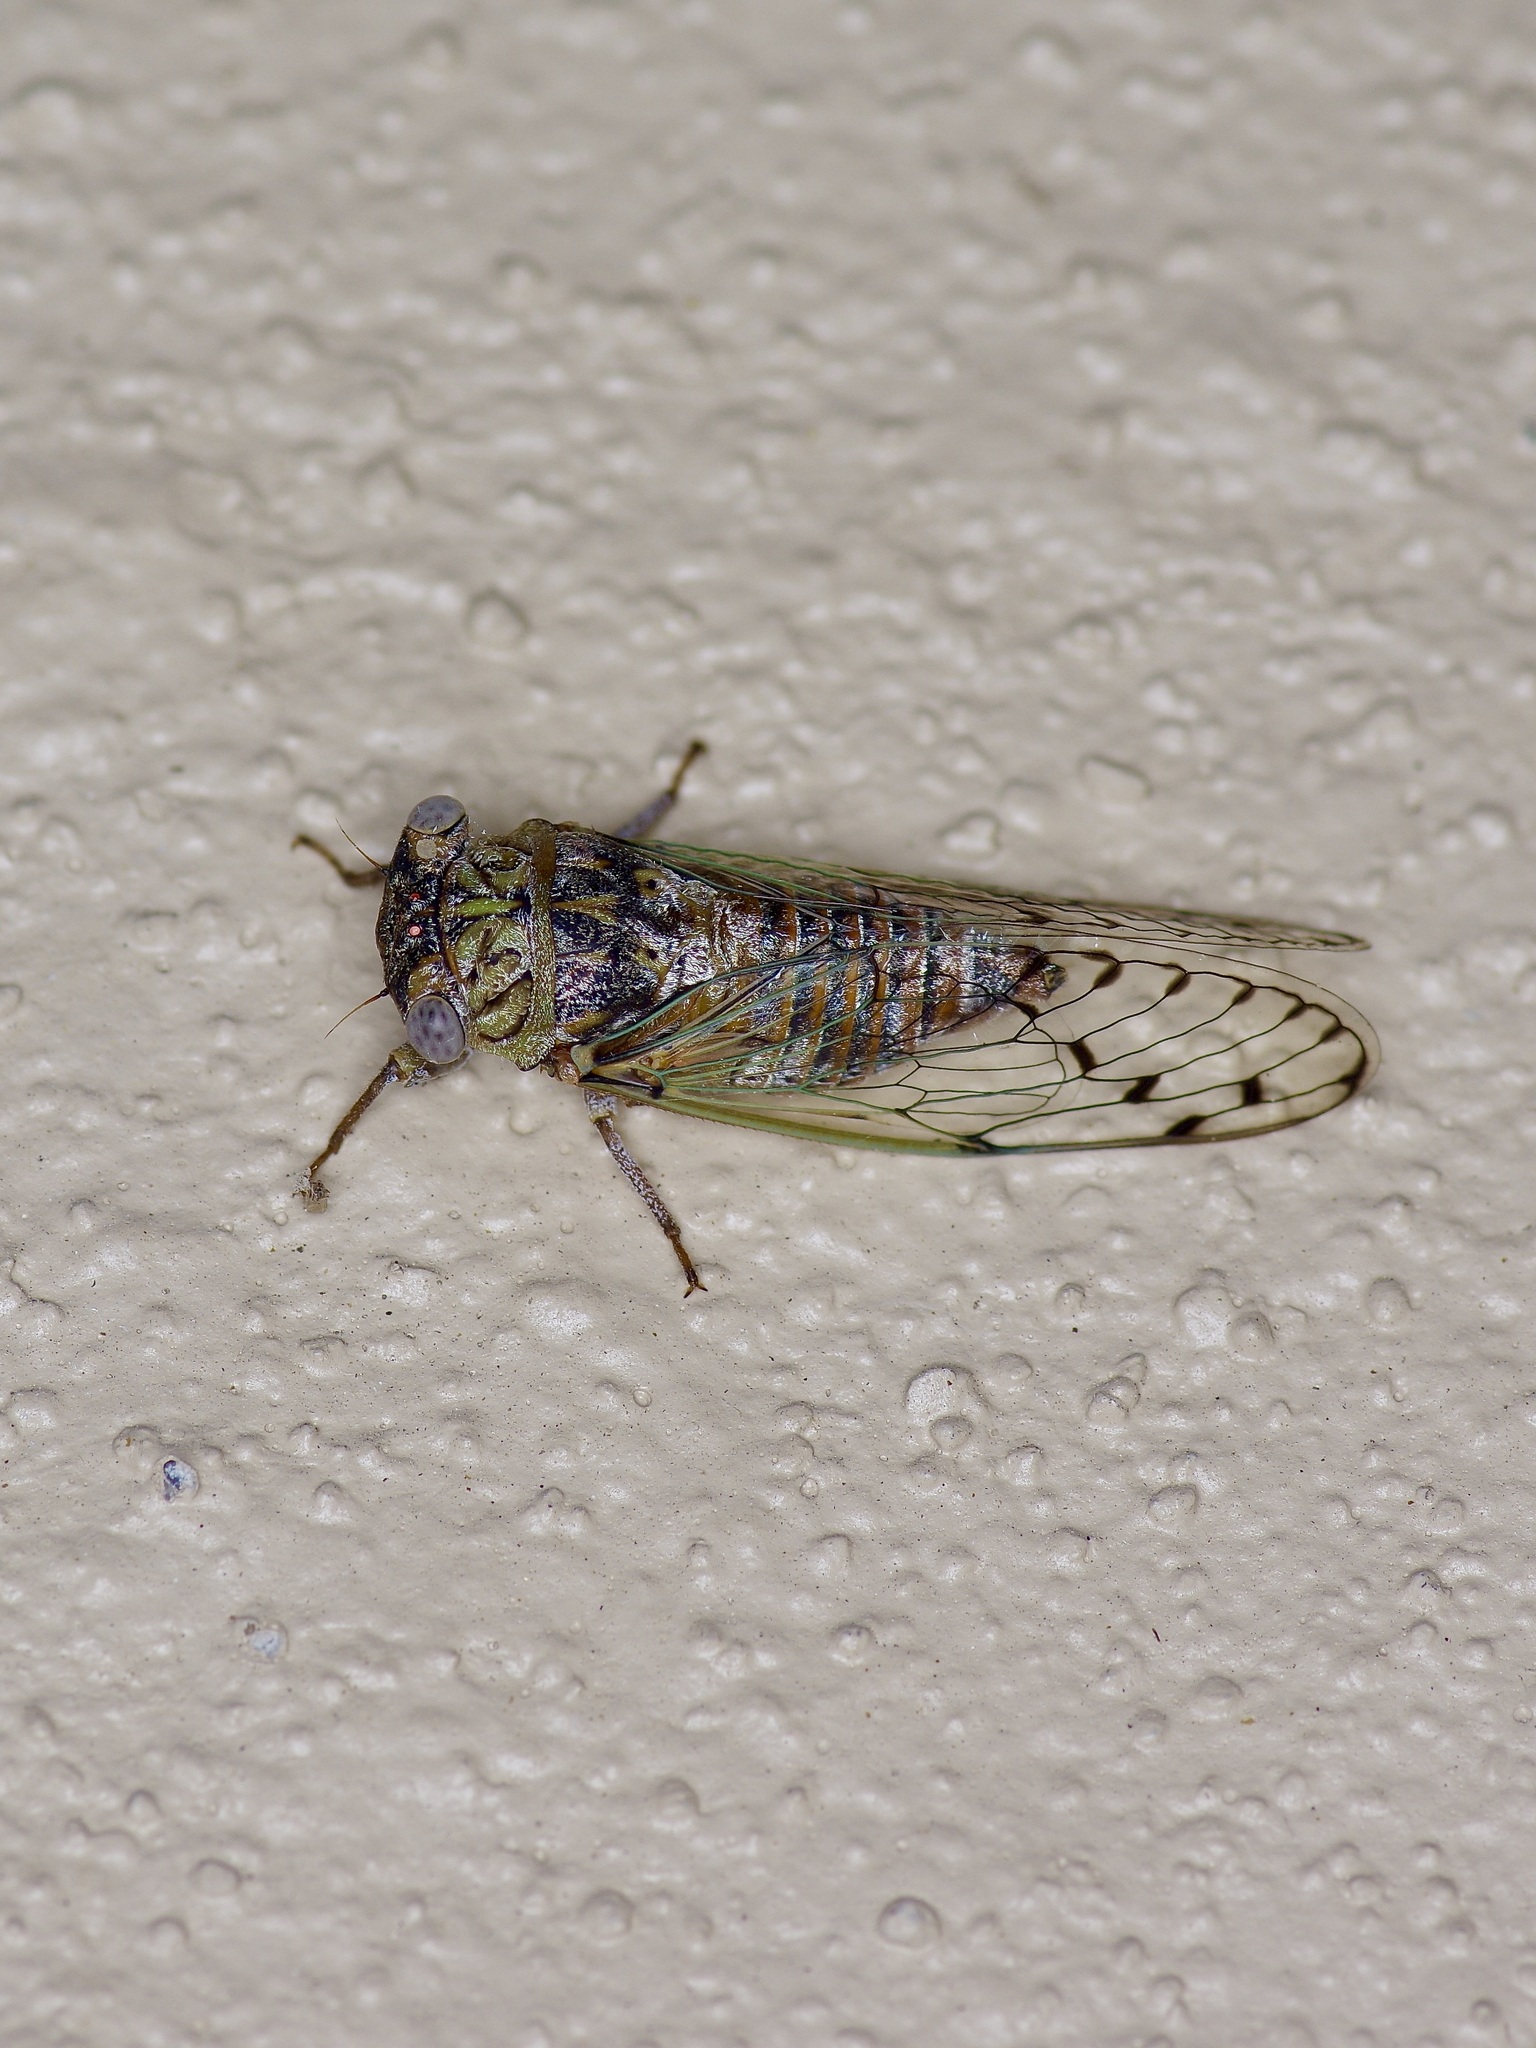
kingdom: Animalia
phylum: Arthropoda
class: Insecta
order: Hemiptera
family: Cicadidae
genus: Pacarina
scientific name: Pacarina puella
